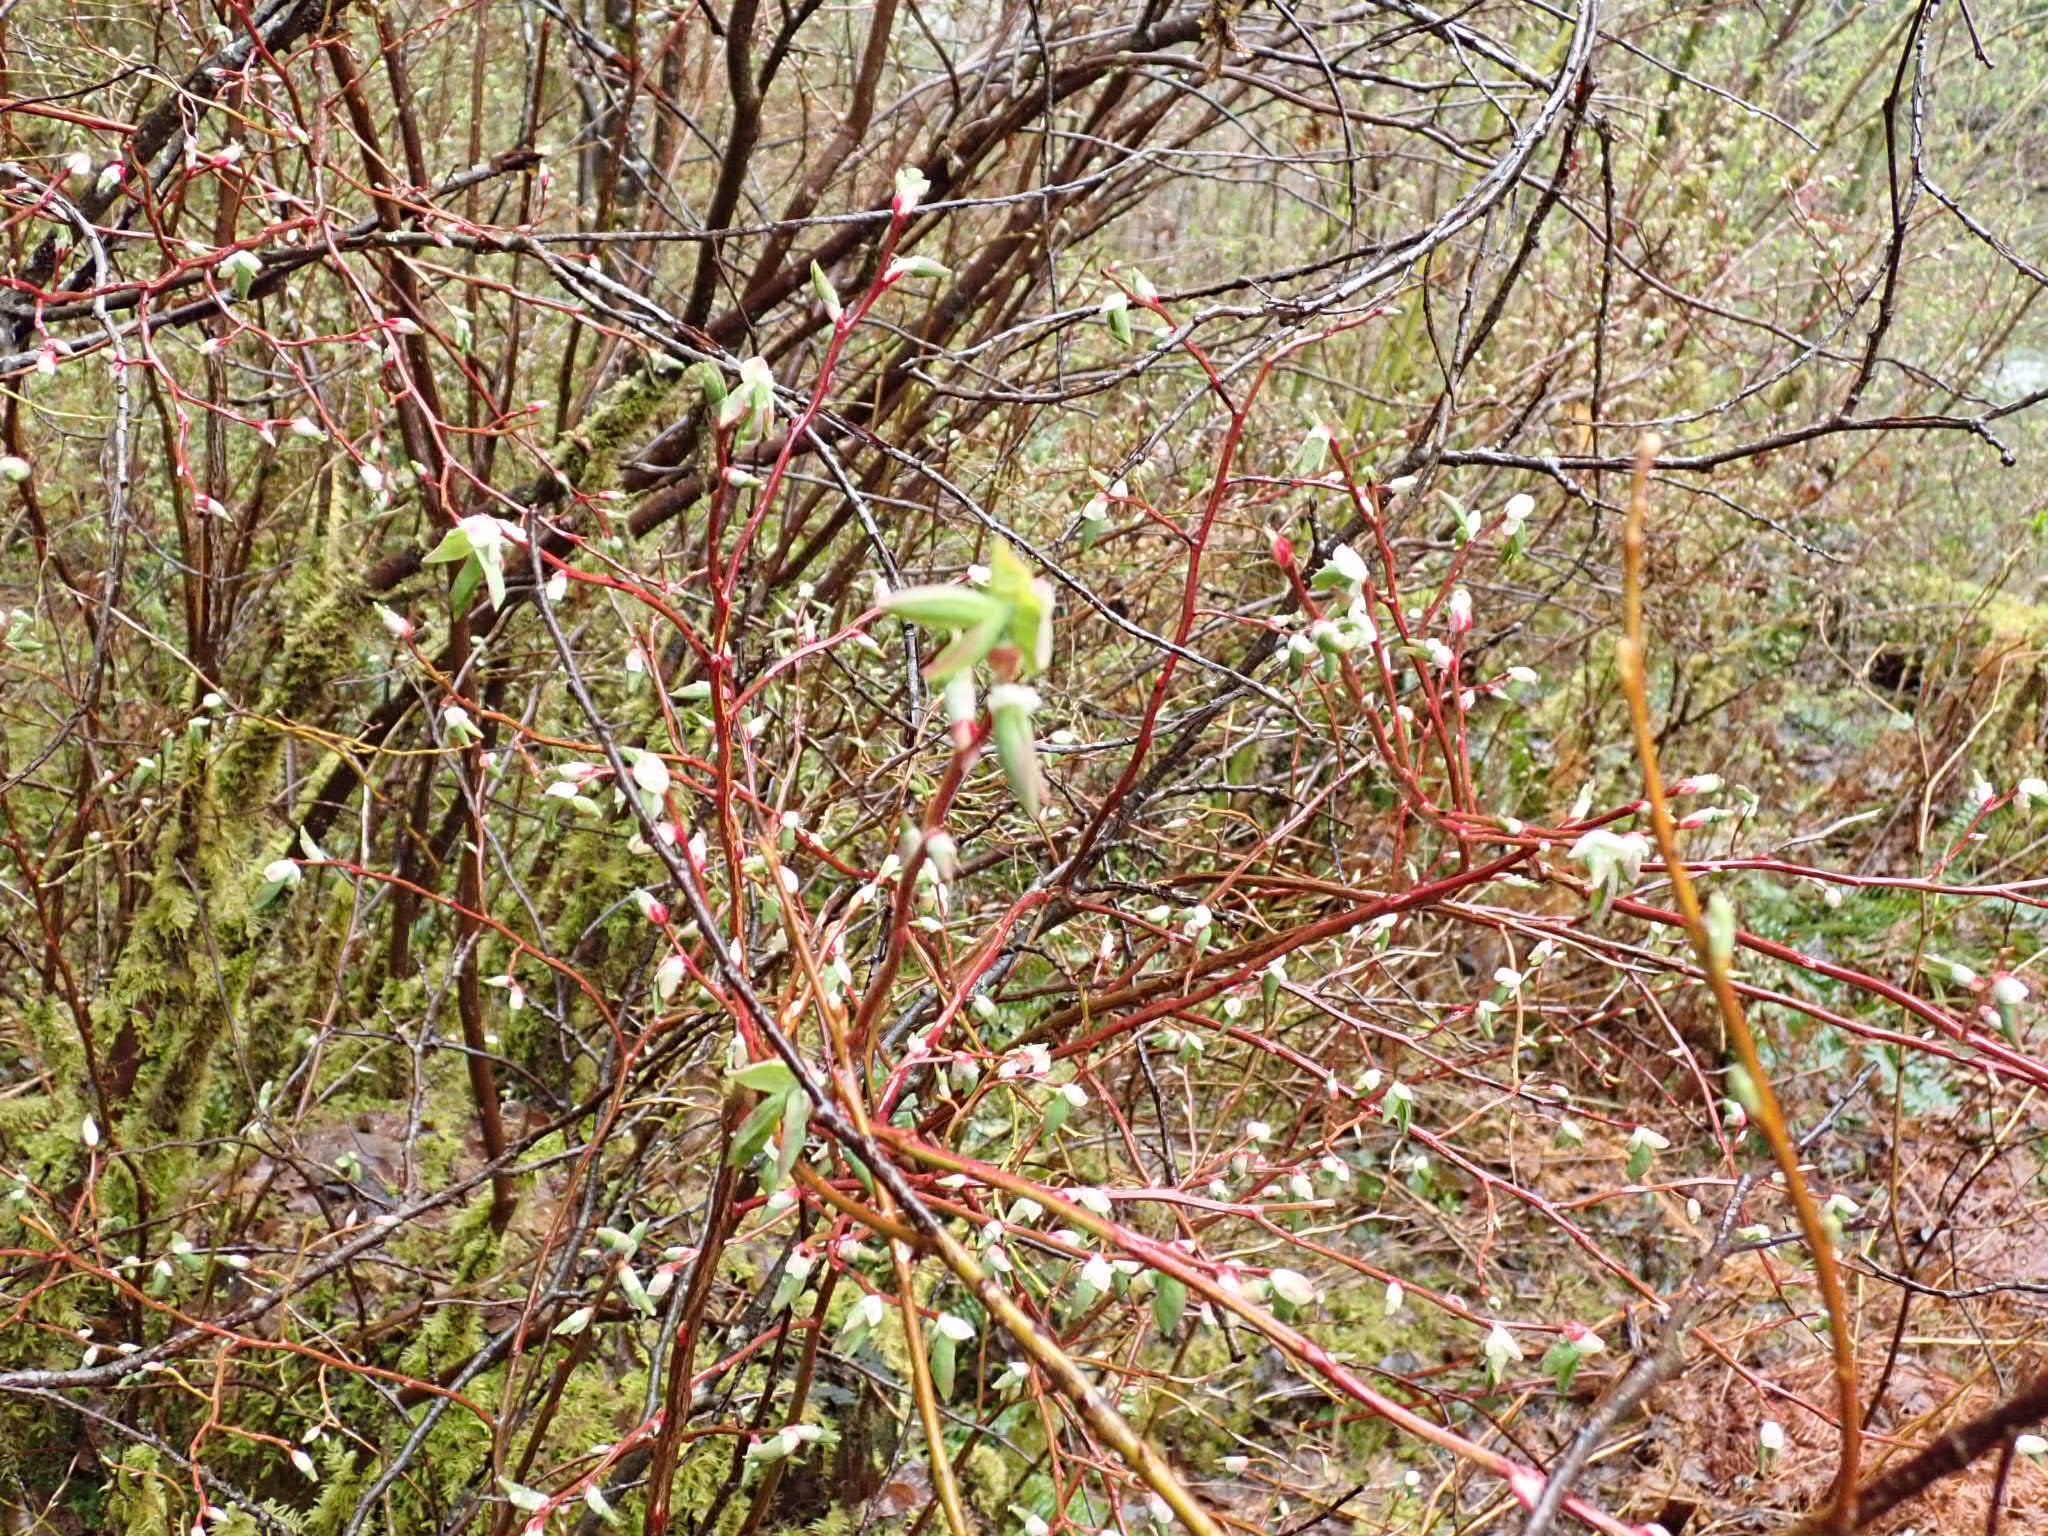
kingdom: Plantae
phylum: Tracheophyta
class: Magnoliopsida
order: Cornales
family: Cornaceae
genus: Cornus
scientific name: Cornus sericea
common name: Red-osier dogwood
